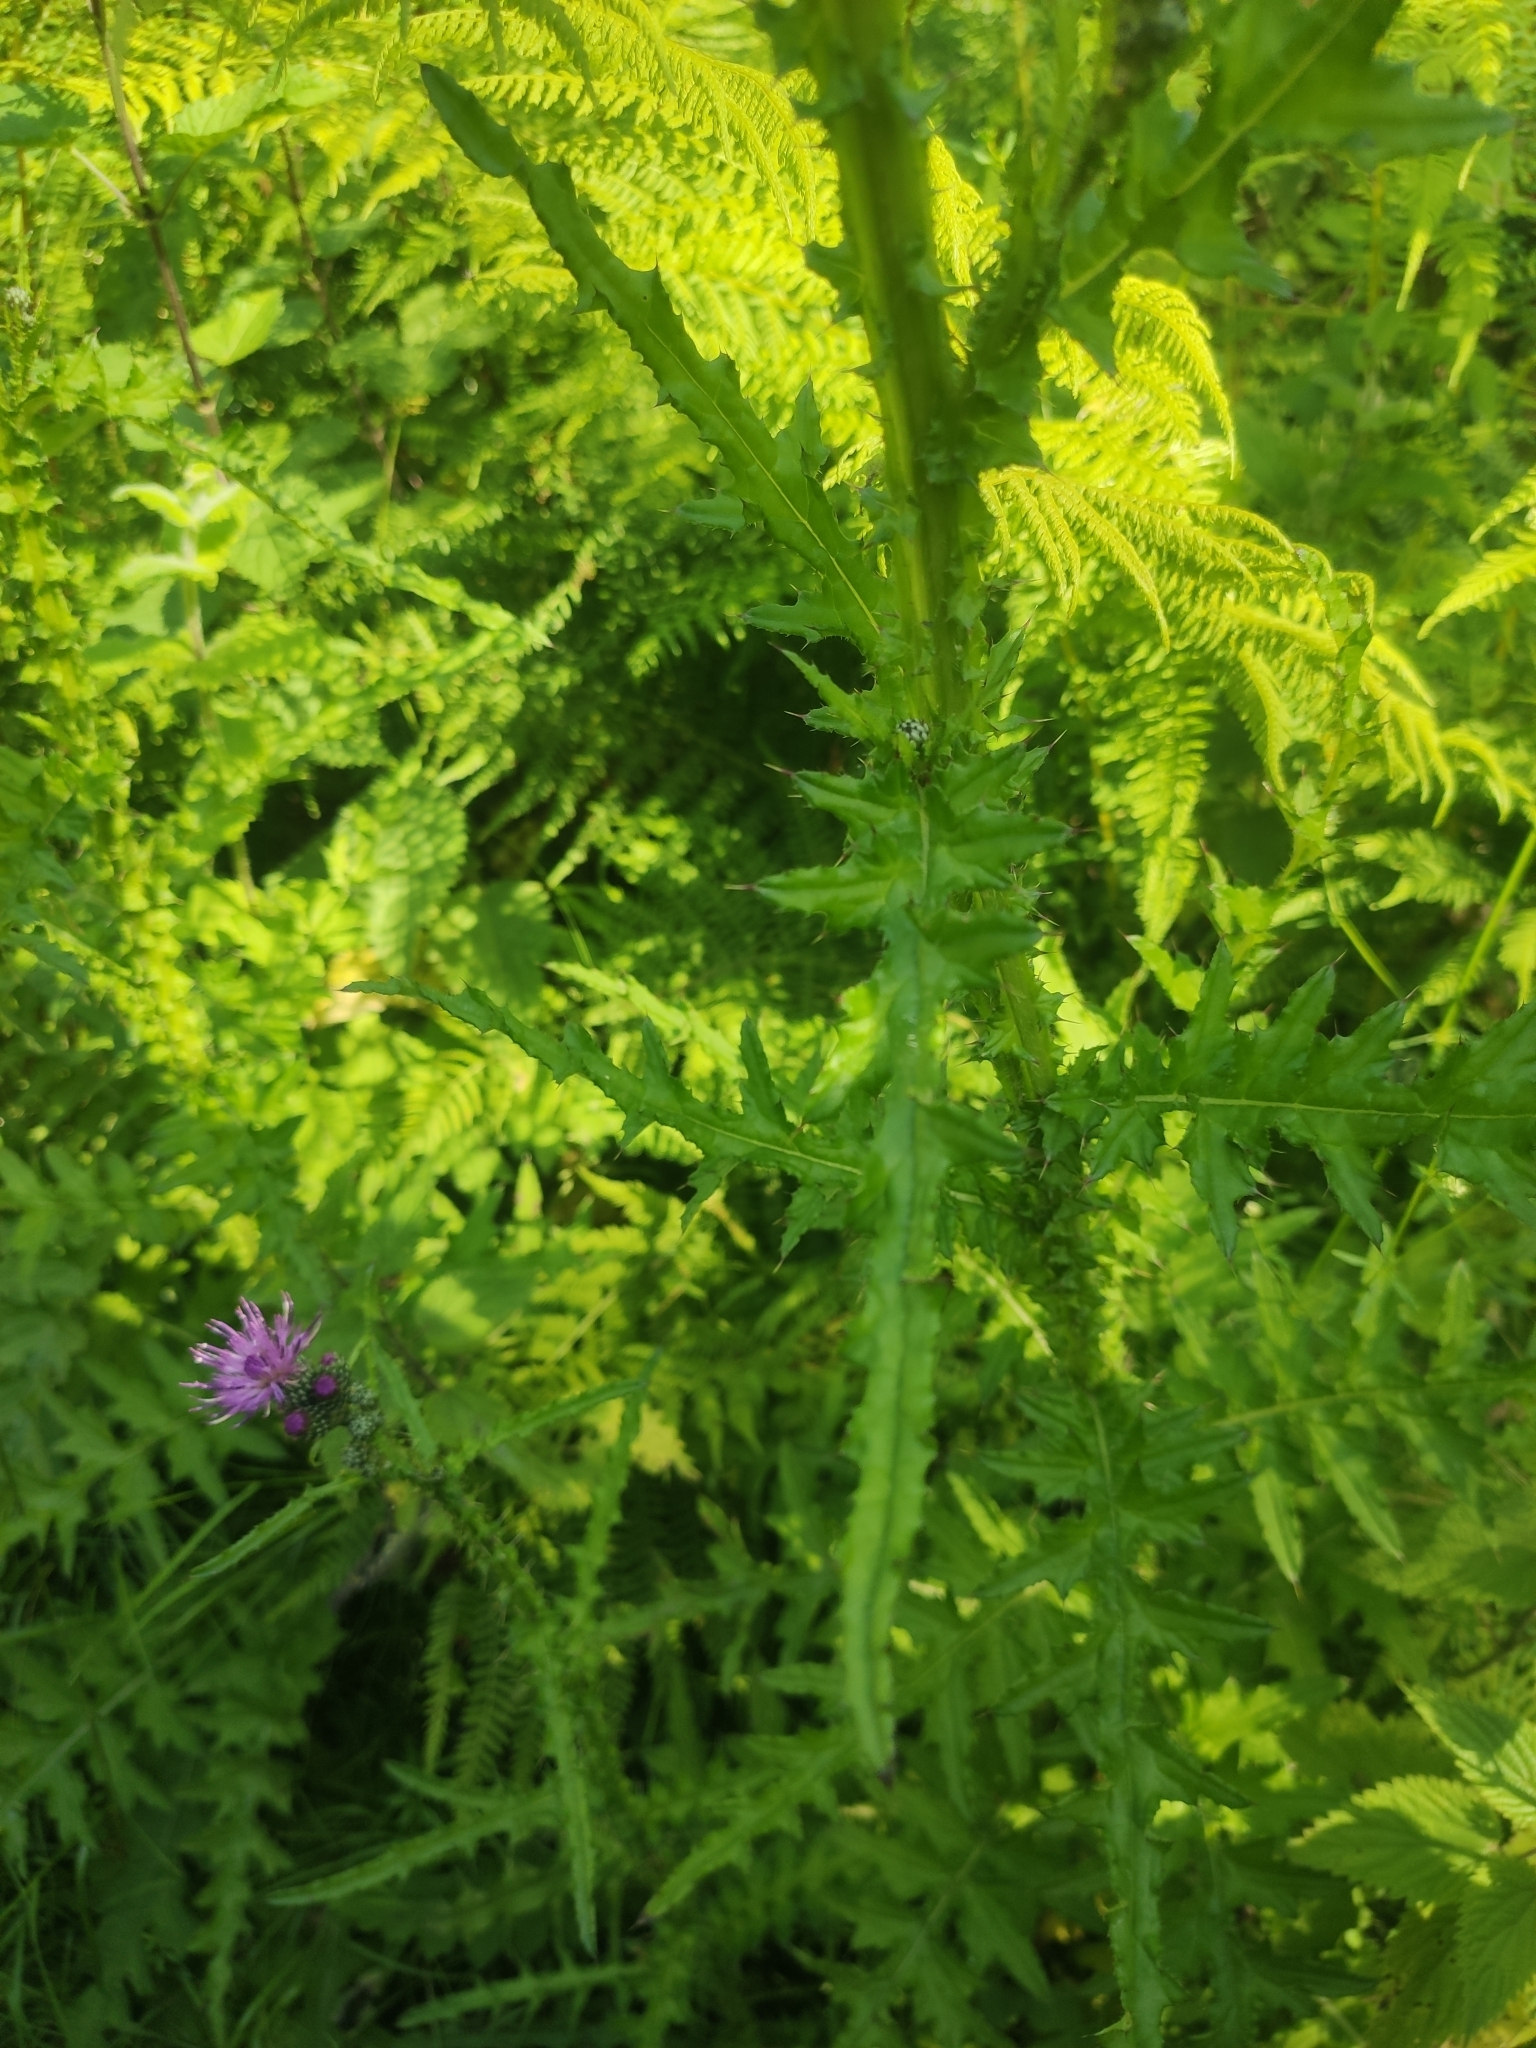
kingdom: Plantae
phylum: Tracheophyta
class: Magnoliopsida
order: Asterales
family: Asteraceae
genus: Cirsium
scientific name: Cirsium palustre
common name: Marsh thistle
